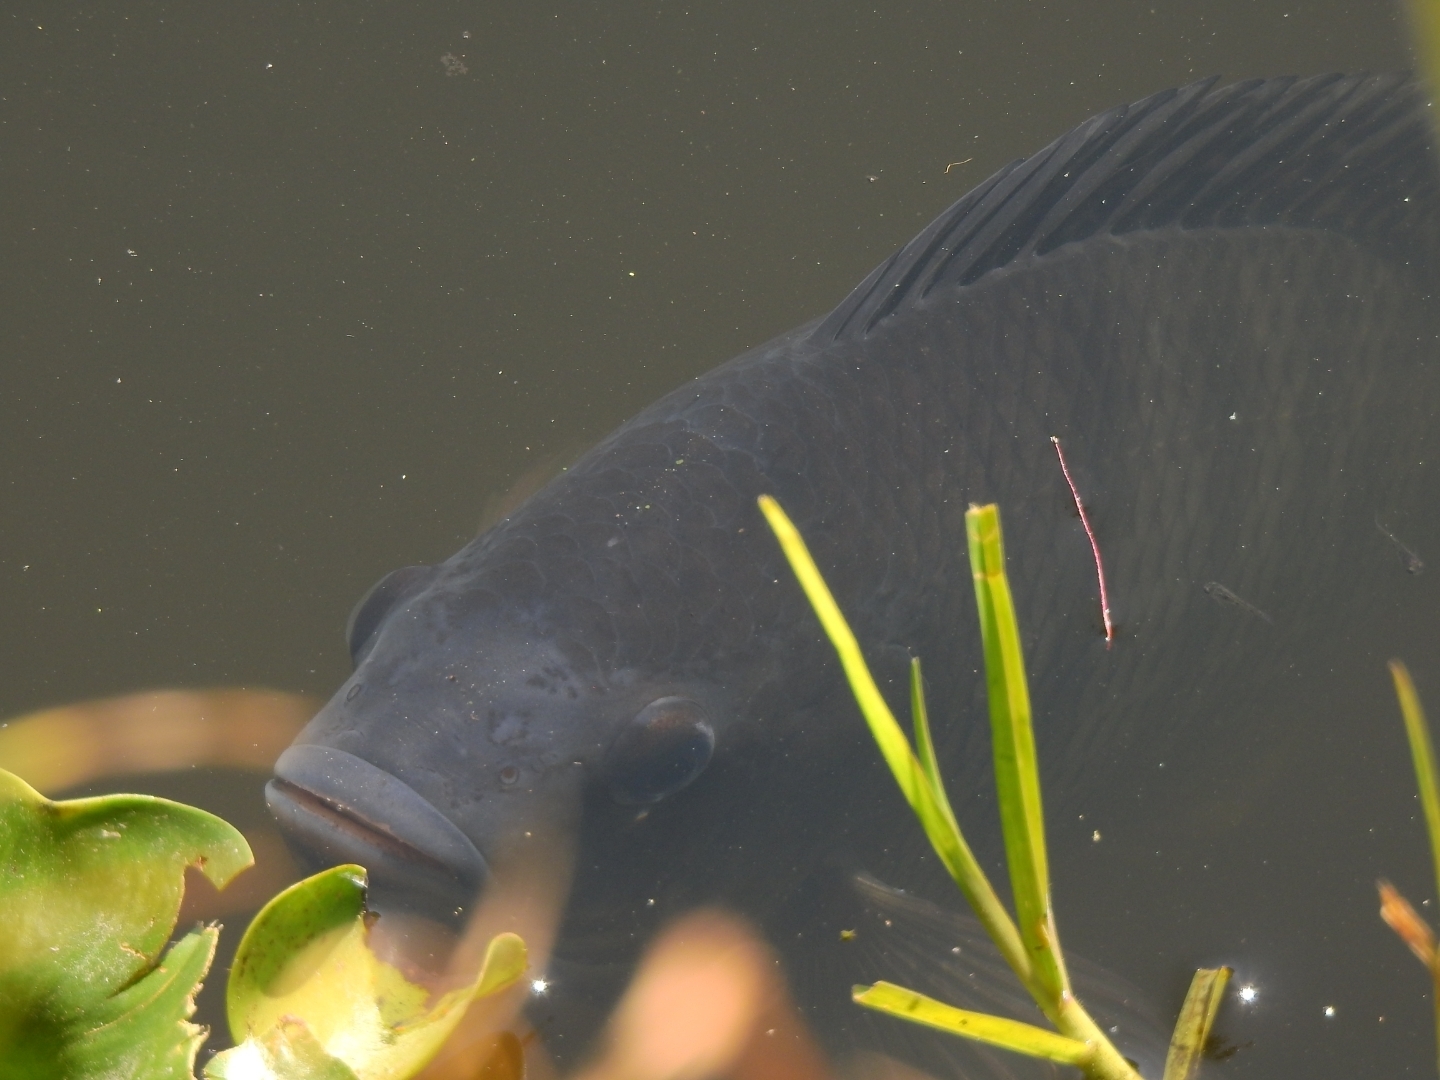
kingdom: Animalia
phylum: Chordata
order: Perciformes
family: Cichlidae
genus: Oreochromis
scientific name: Oreochromis niloticus
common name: Nile tilapia
